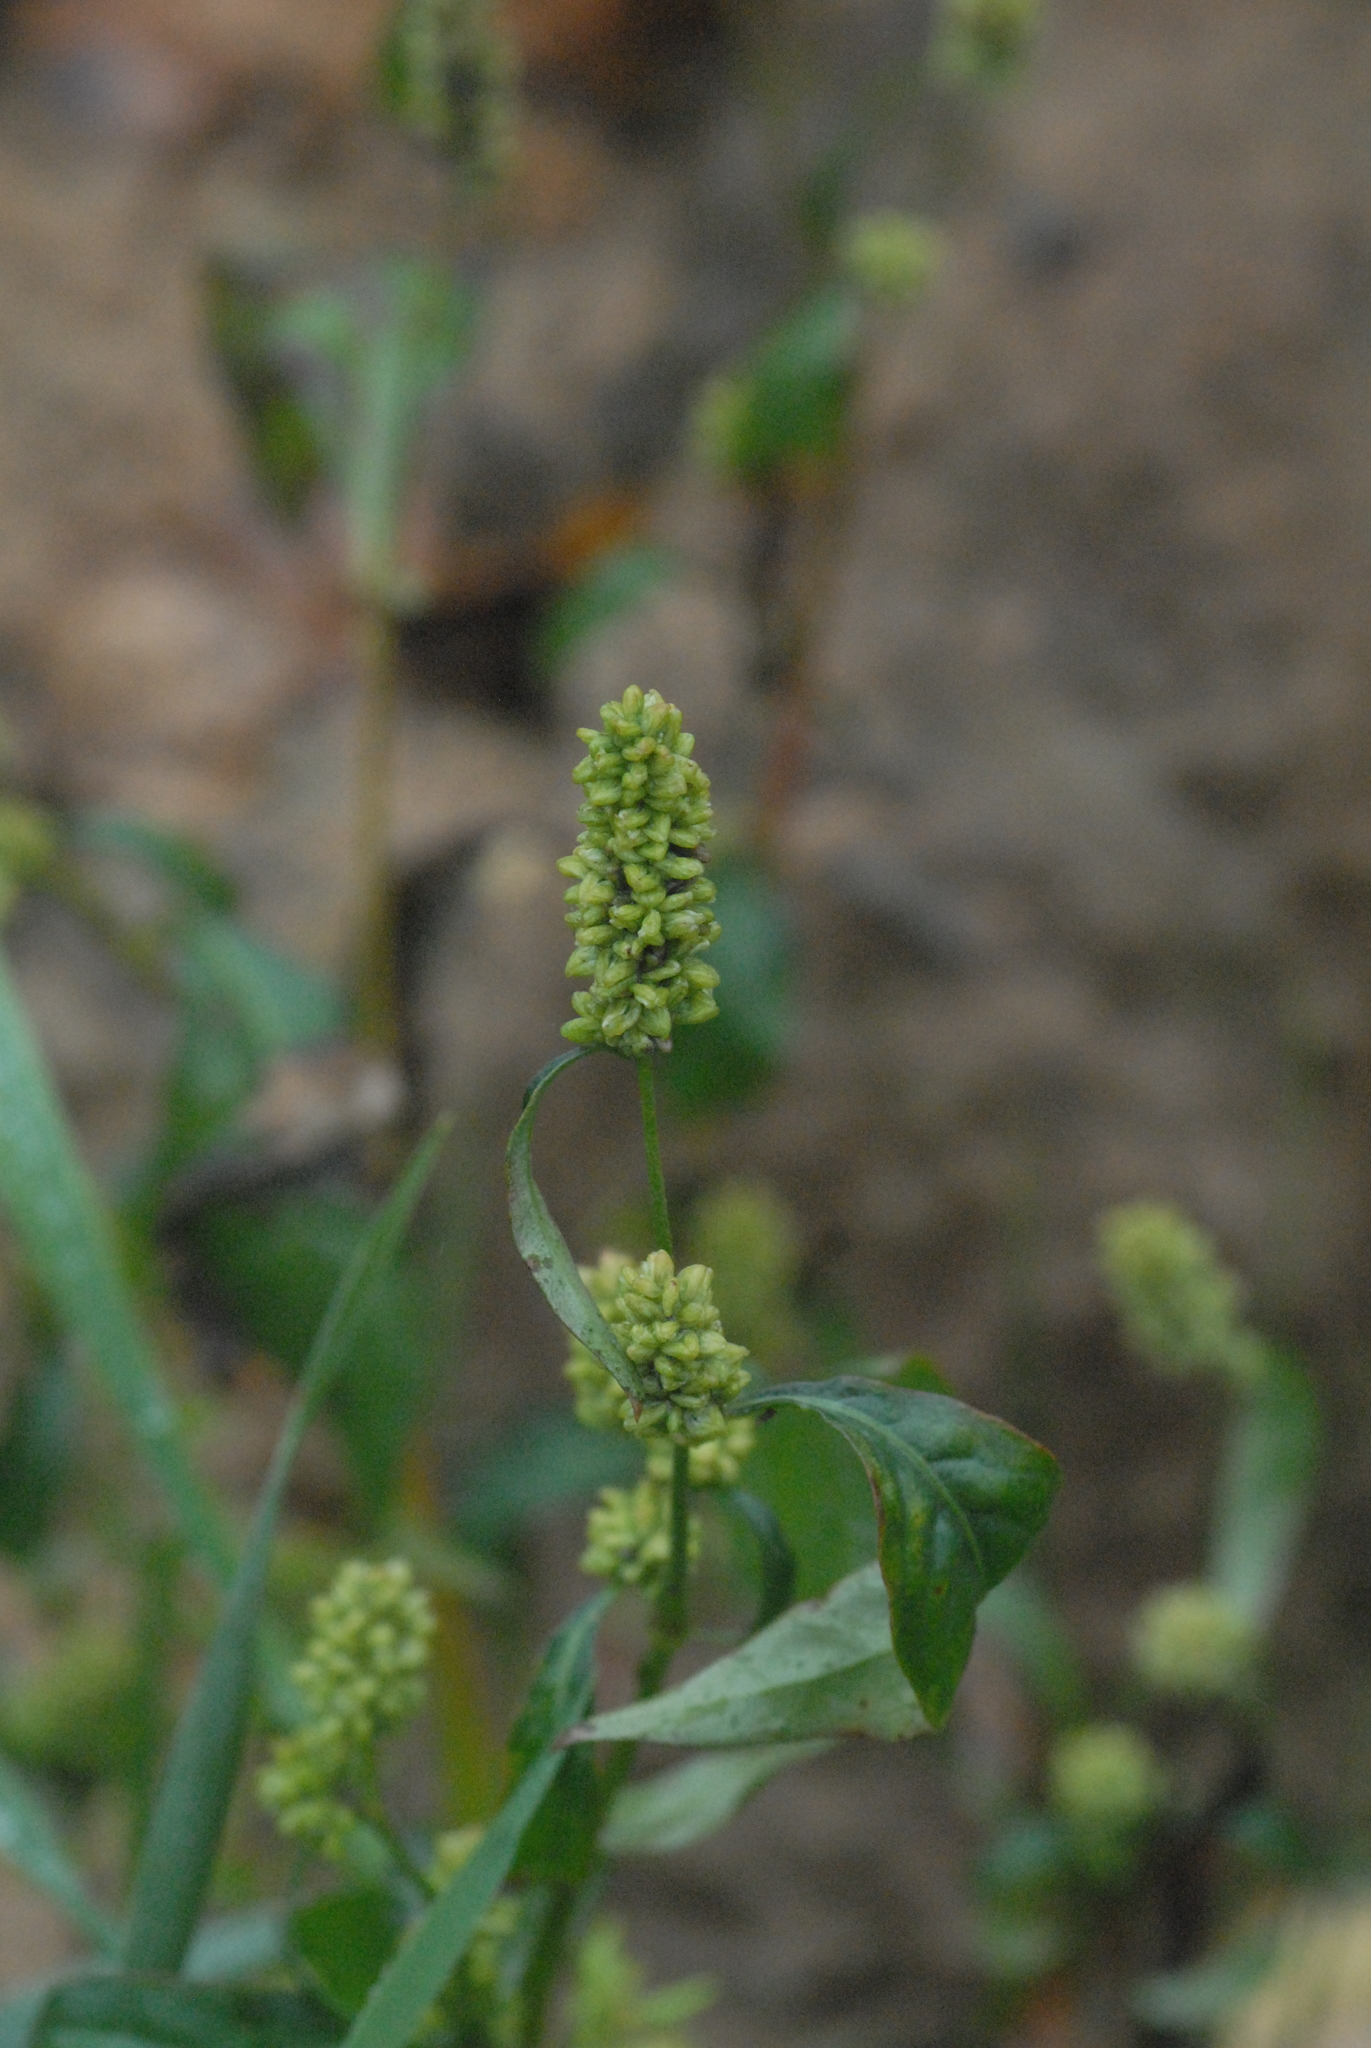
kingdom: Plantae
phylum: Tracheophyta
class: Magnoliopsida
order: Caryophyllales
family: Polygonaceae
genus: Persicaria
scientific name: Persicaria lapathifolia
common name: Curlytop knotweed
